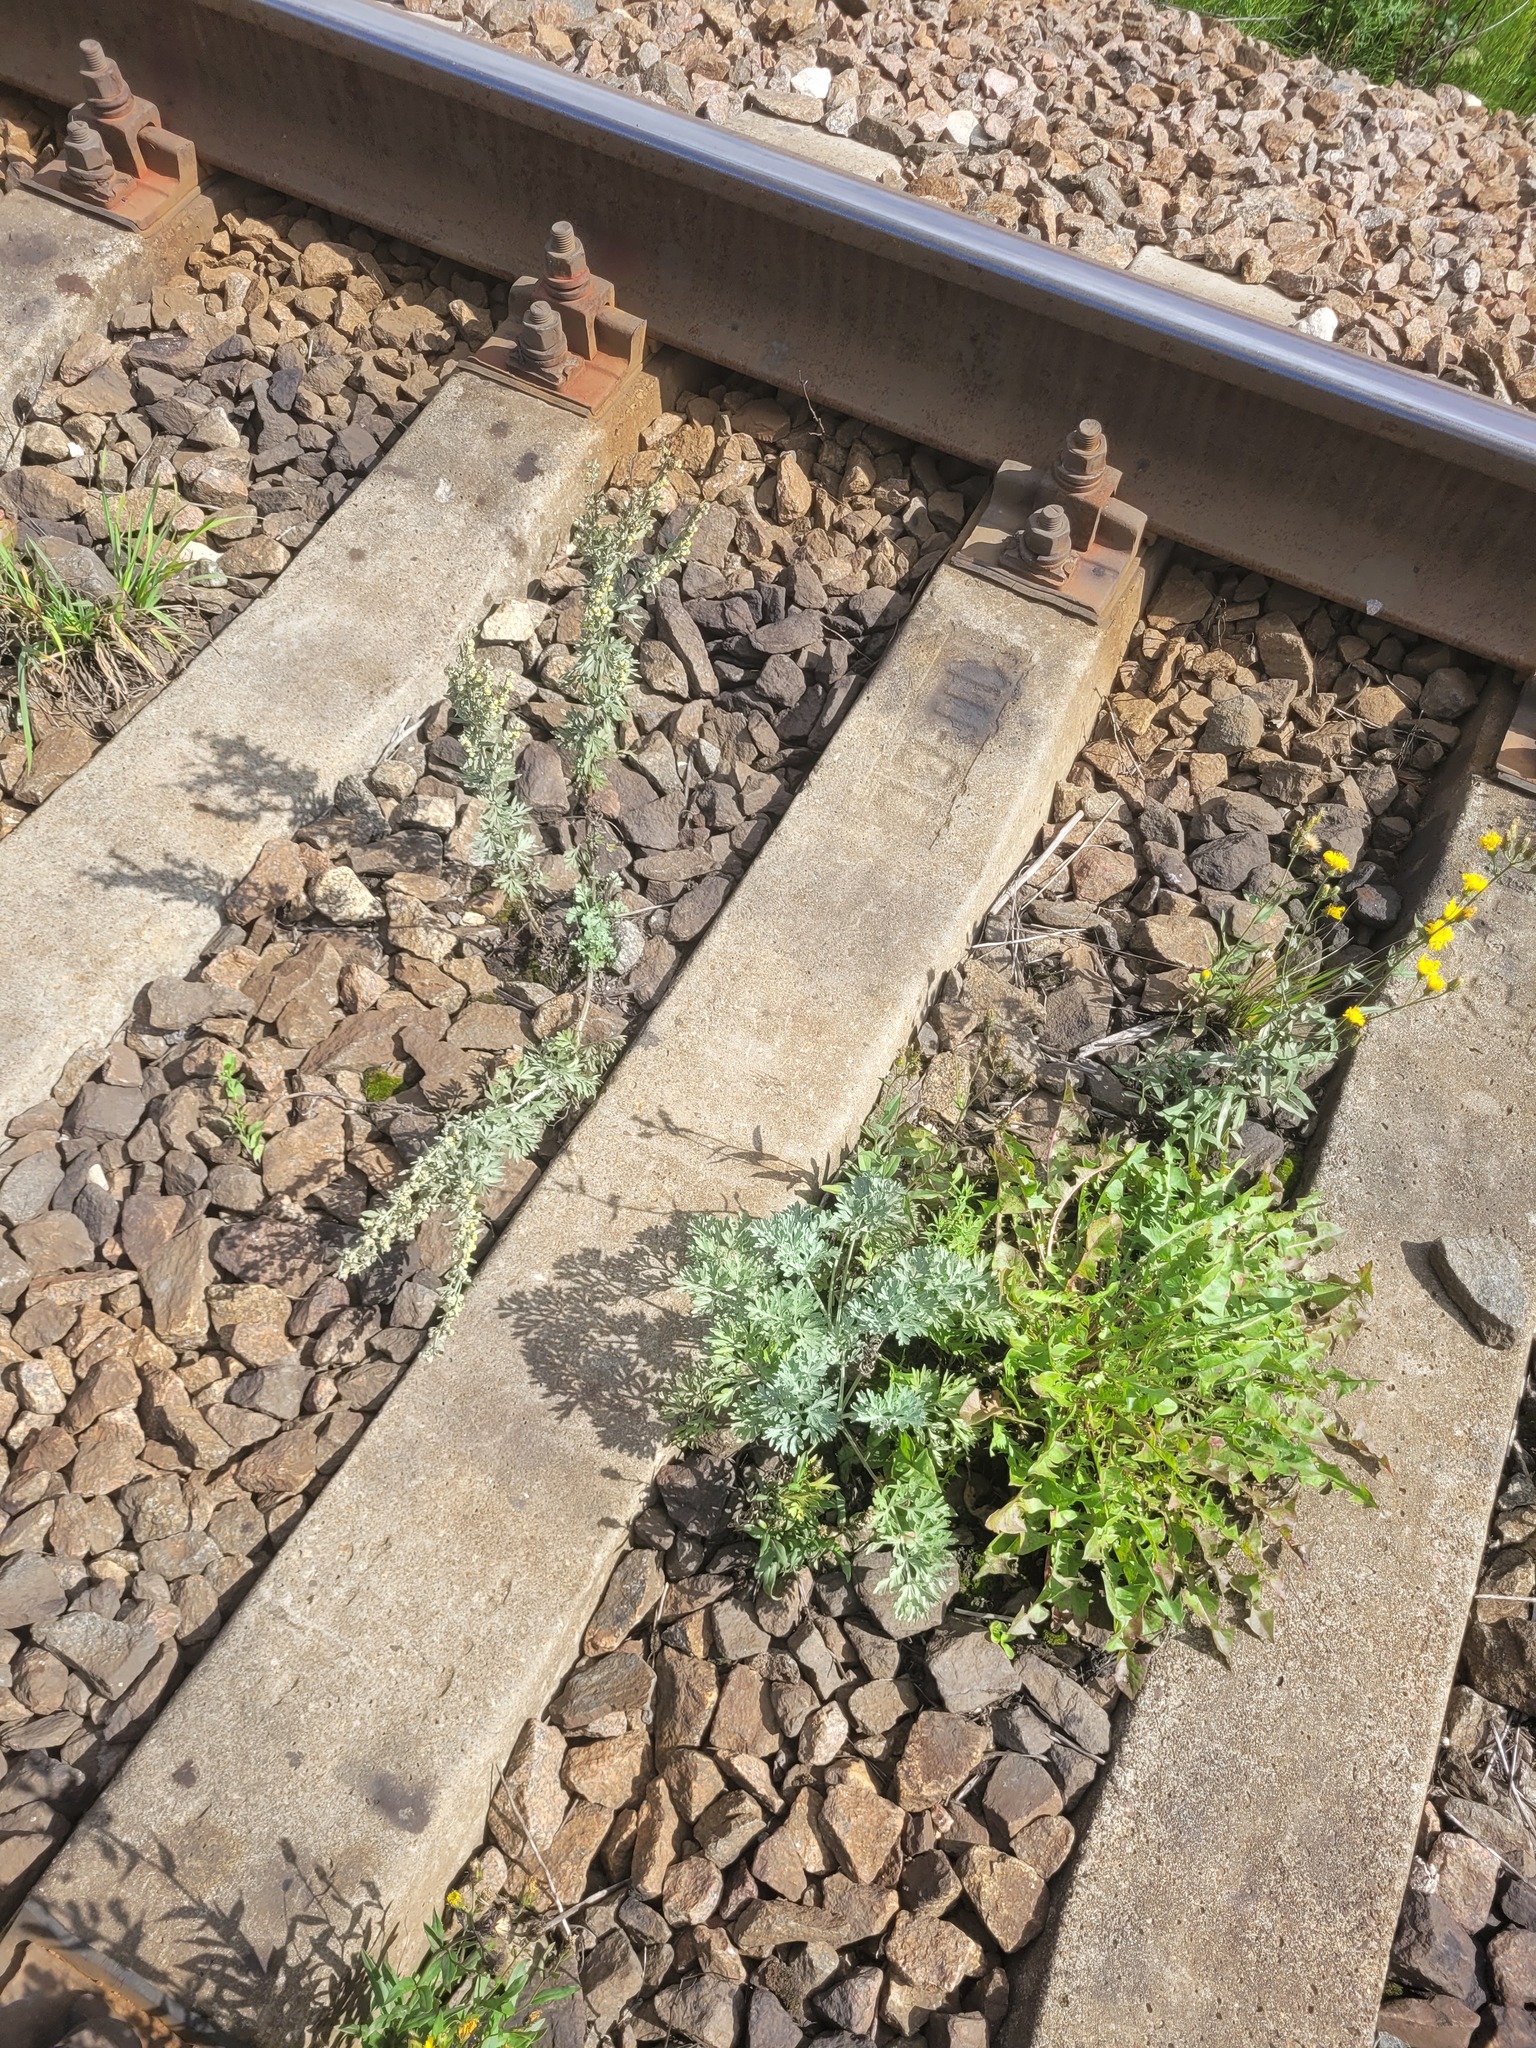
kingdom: Plantae
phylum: Tracheophyta
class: Magnoliopsida
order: Asterales
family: Asteraceae
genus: Artemisia
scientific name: Artemisia absinthium
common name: Wormwood
